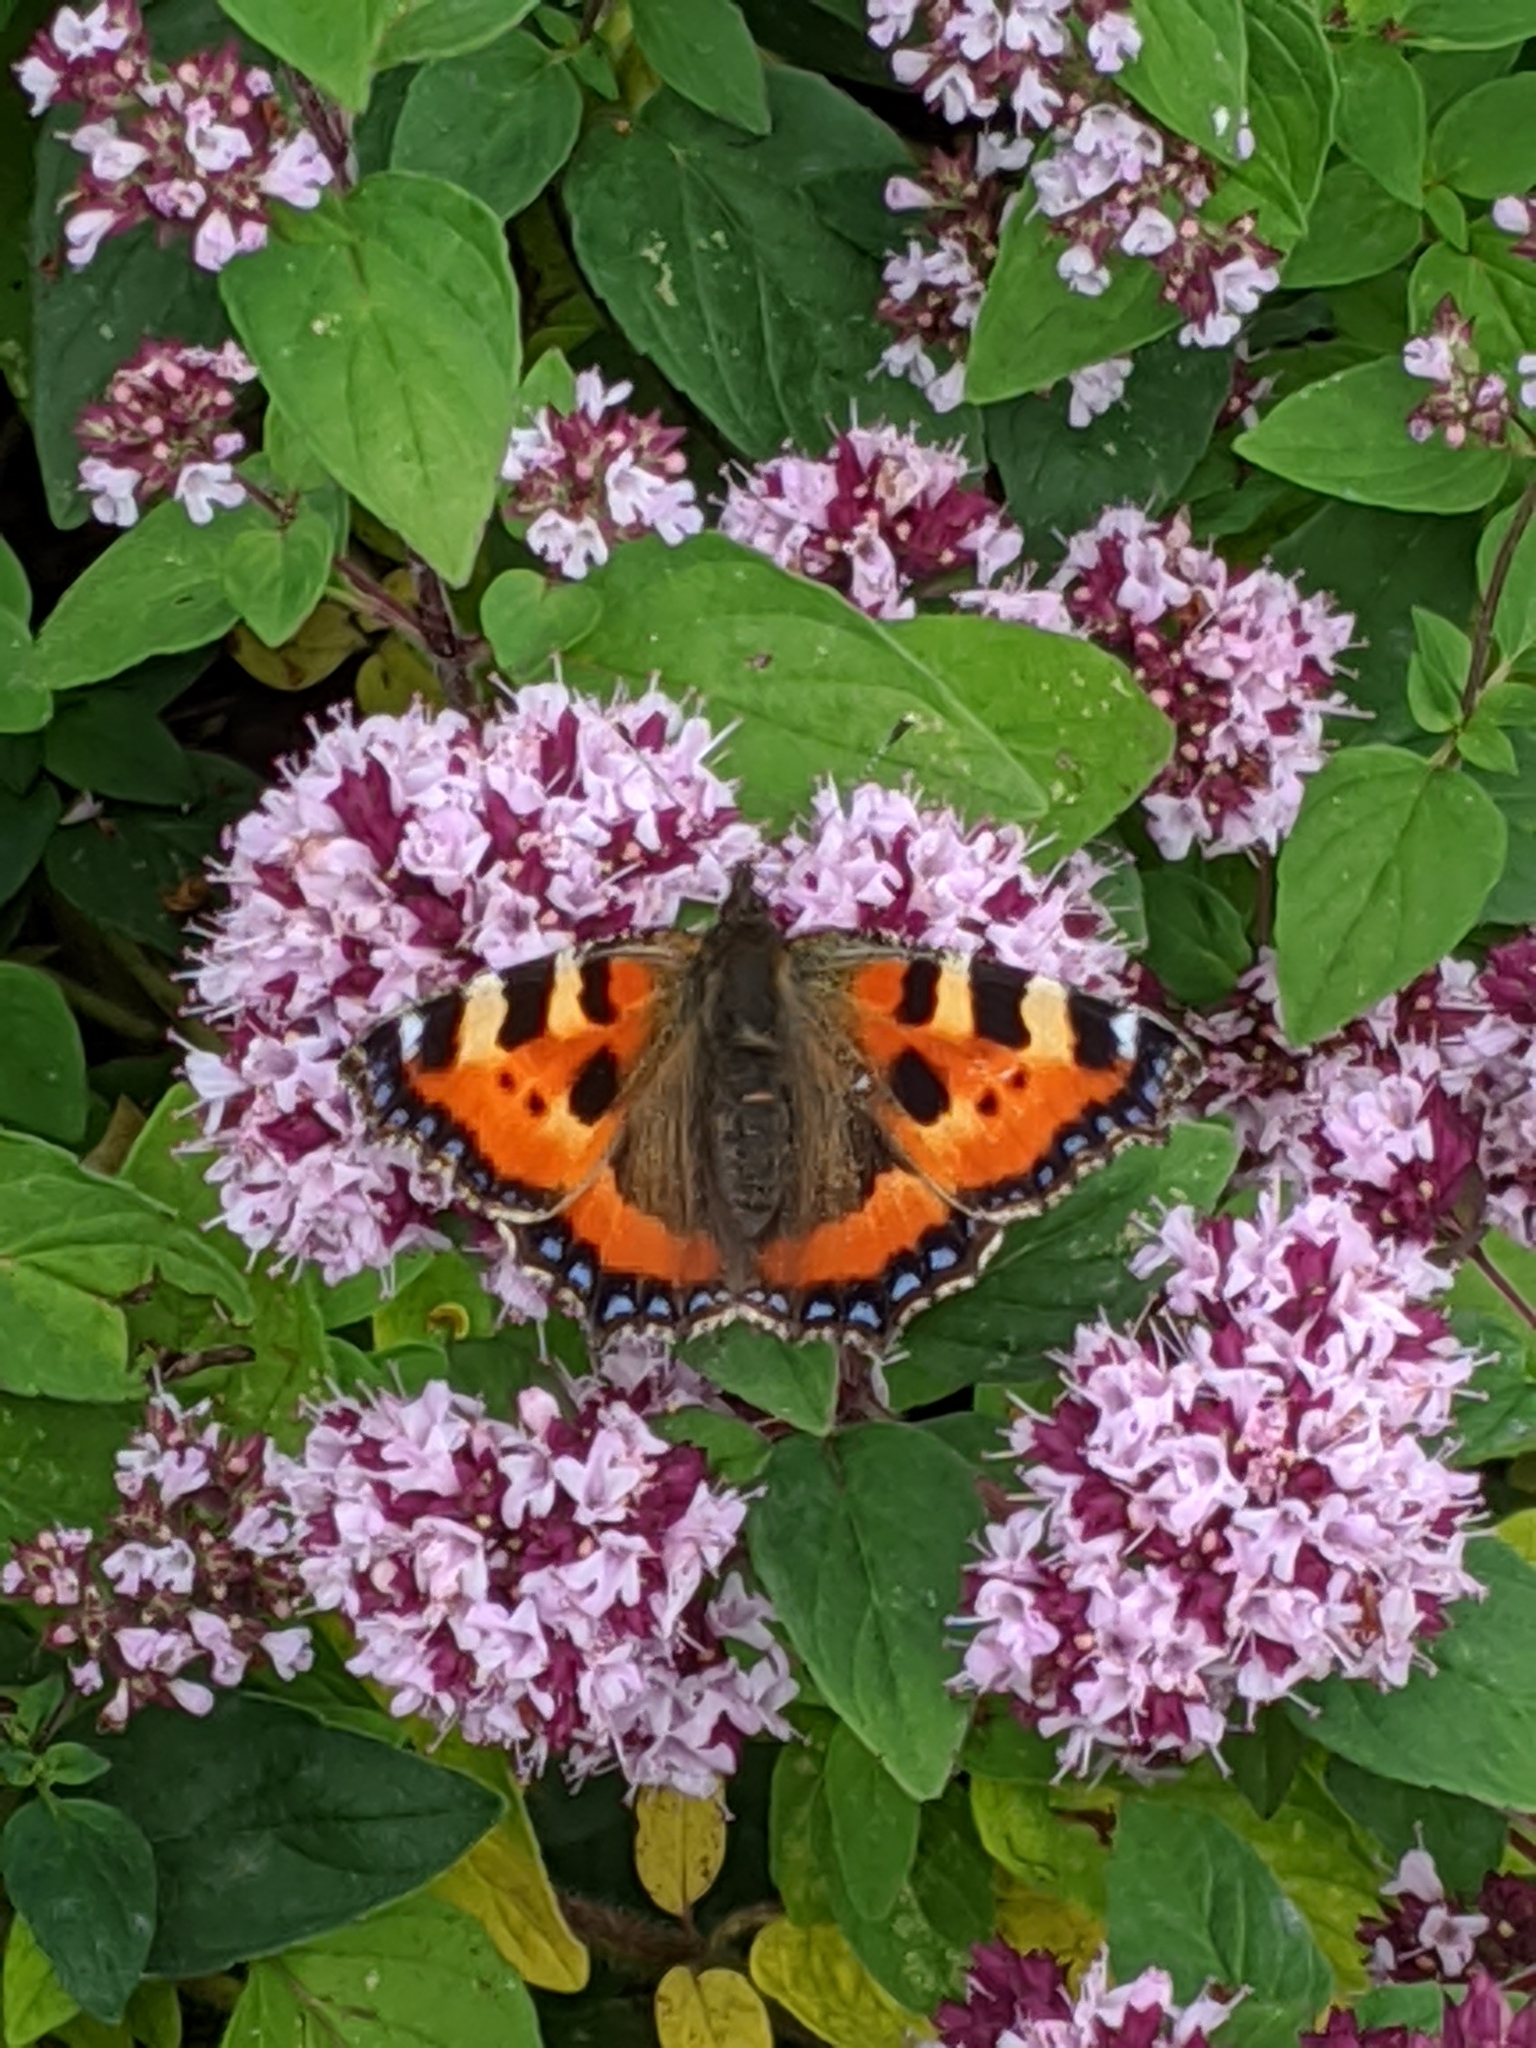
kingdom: Animalia
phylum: Arthropoda
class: Insecta
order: Lepidoptera
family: Nymphalidae
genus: Aglais
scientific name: Aglais urticae
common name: Small tortoiseshell
